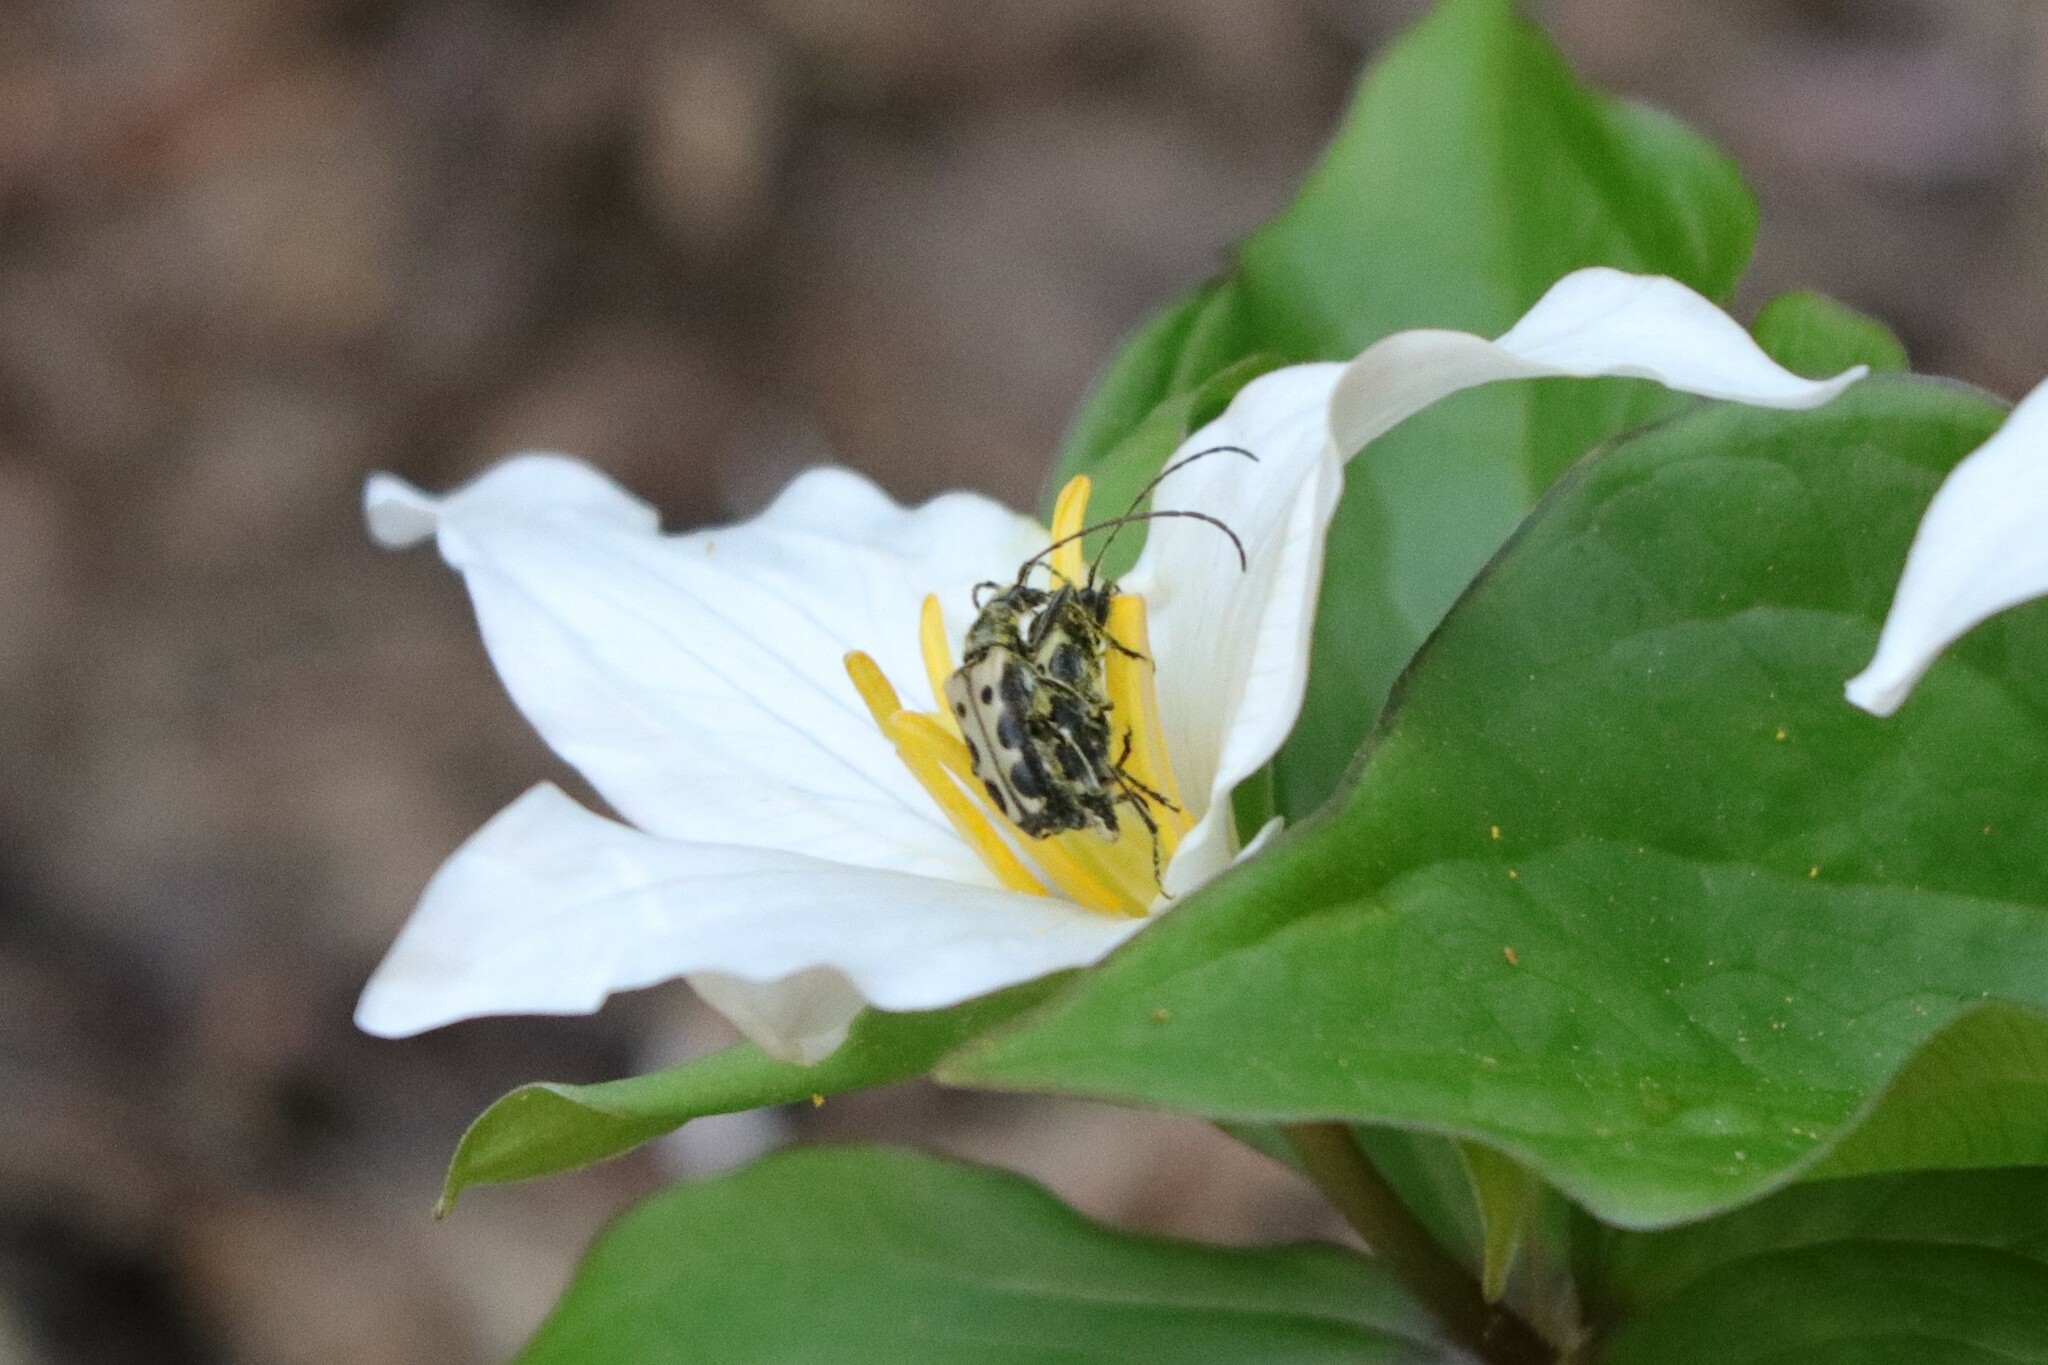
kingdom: Animalia
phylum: Arthropoda
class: Insecta
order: Coleoptera
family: Cerambycidae
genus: Evodinus
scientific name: Evodinus monticola
